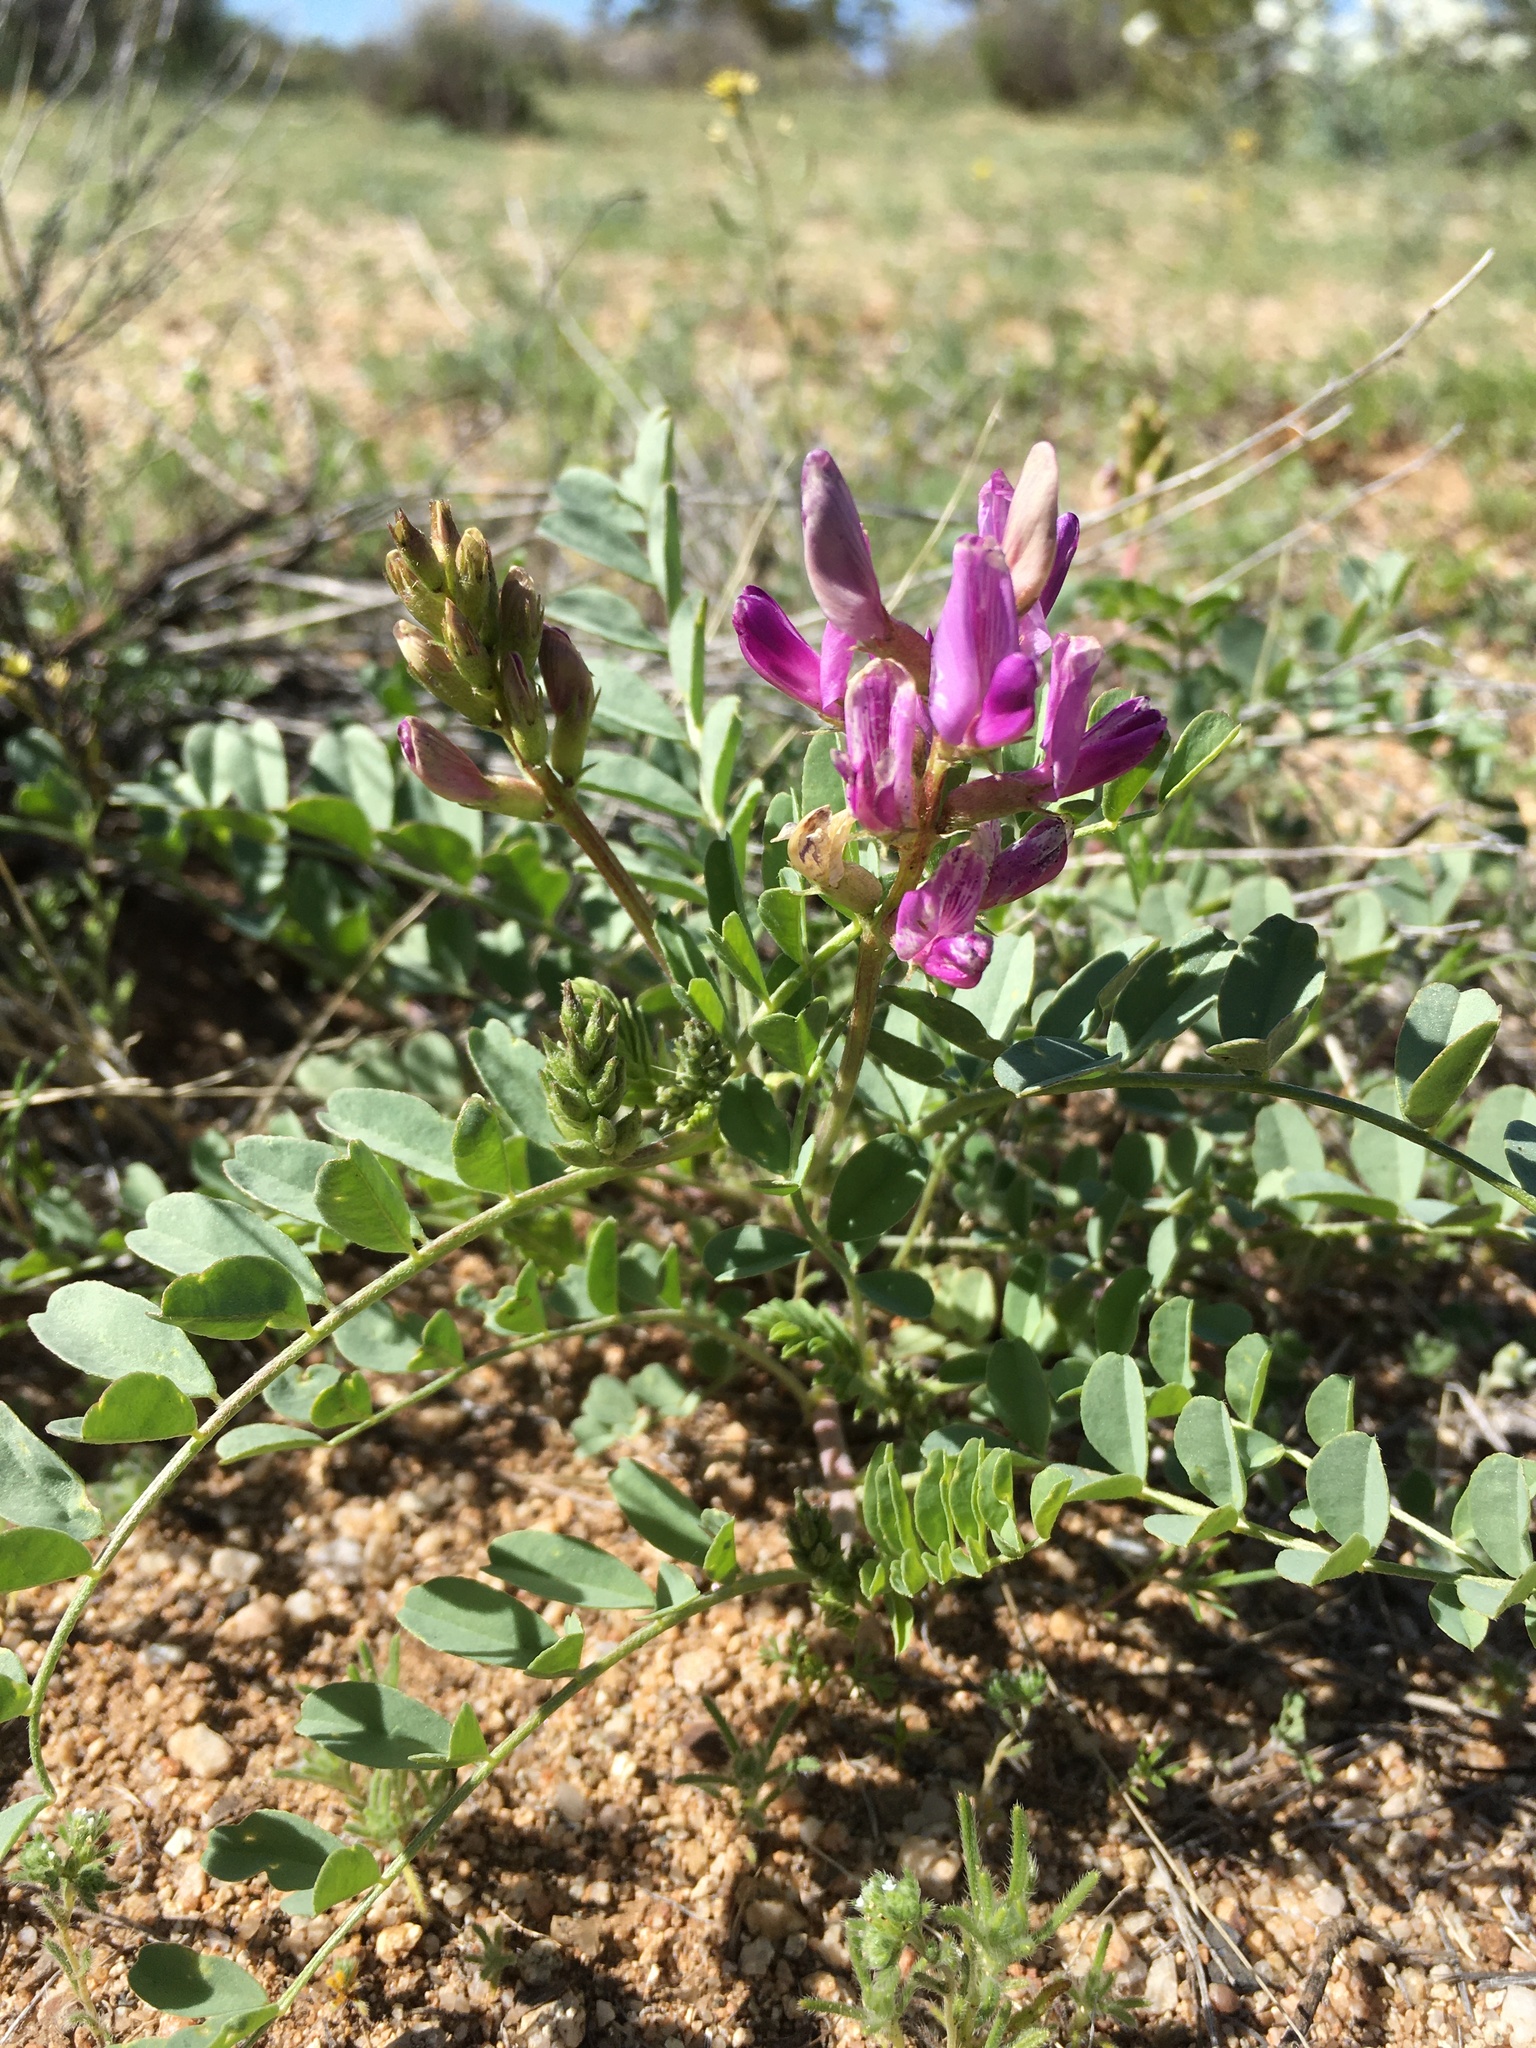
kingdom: Plantae
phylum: Tracheophyta
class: Magnoliopsida
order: Fabales
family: Fabaceae
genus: Astragalus
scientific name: Astragalus lentiginosus
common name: Freckled milkvetch
